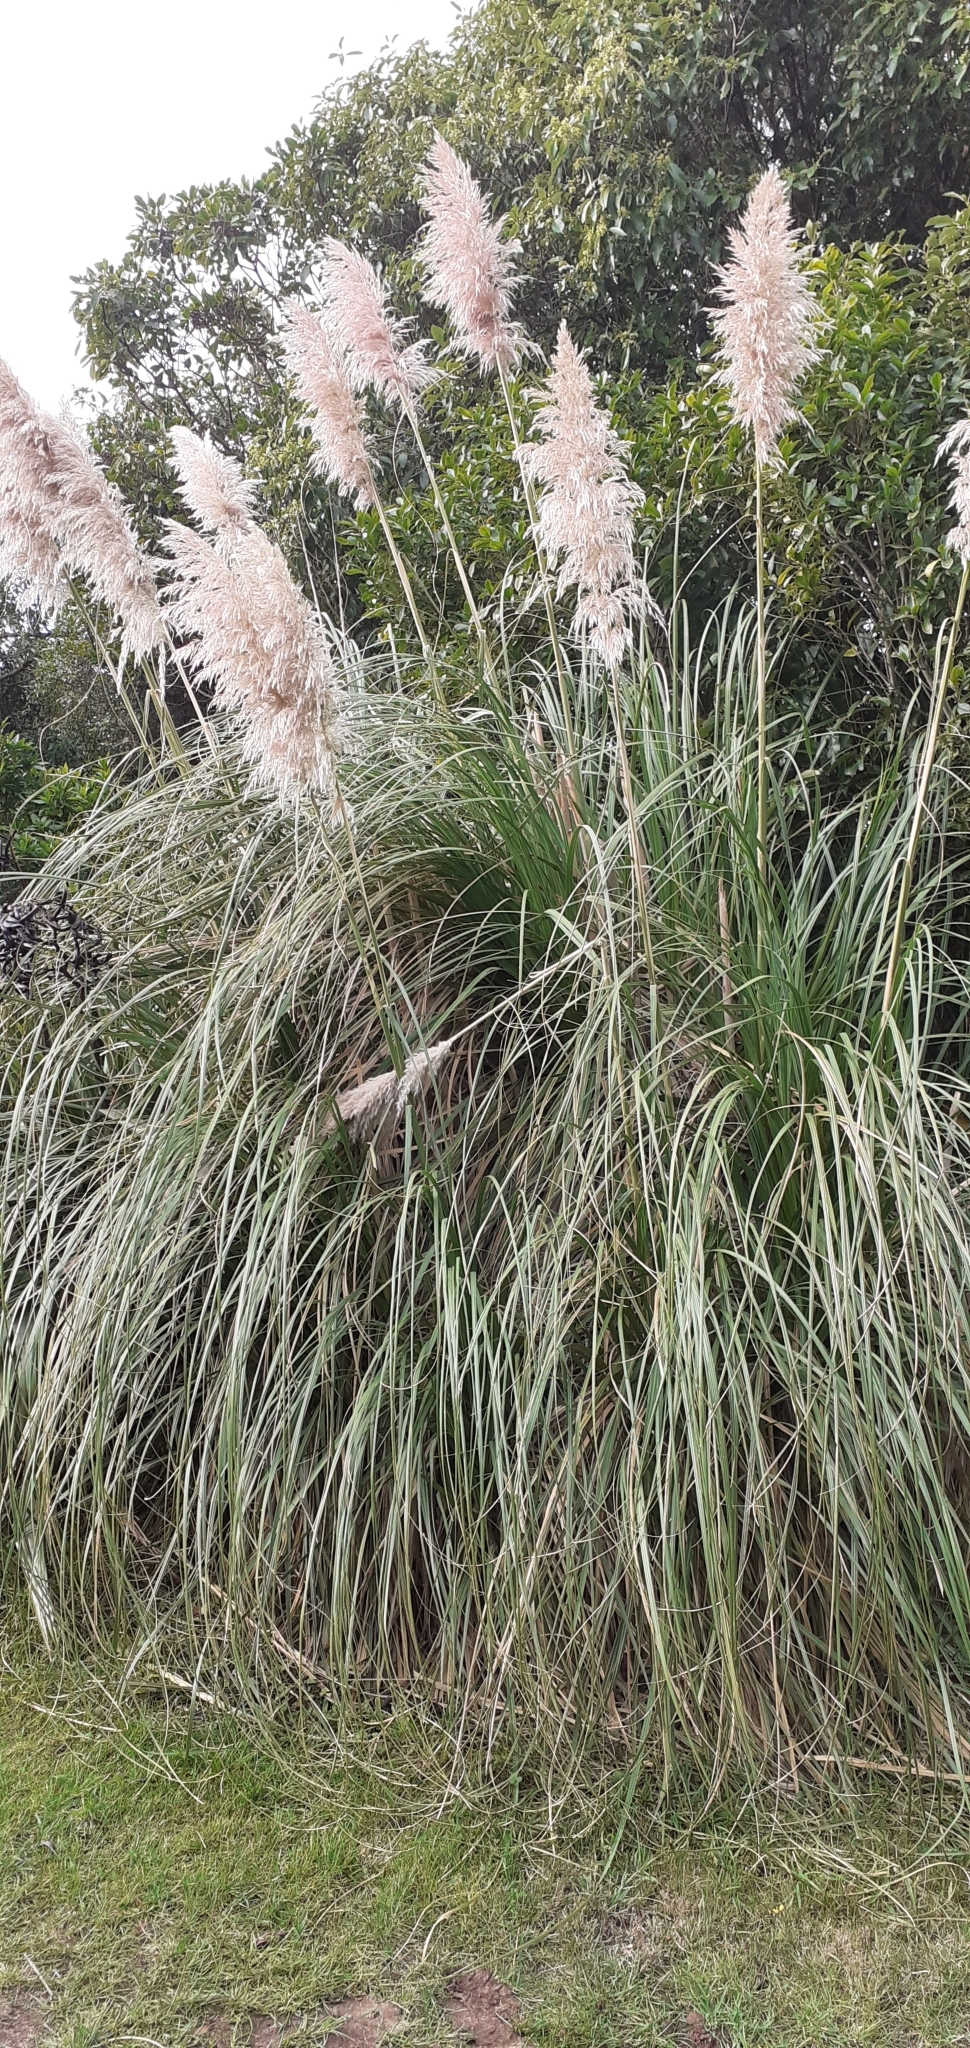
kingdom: Plantae
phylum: Tracheophyta
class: Liliopsida
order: Poales
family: Poaceae
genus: Cortaderia
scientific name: Cortaderia selloana
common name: Uruguayan pampas grass
